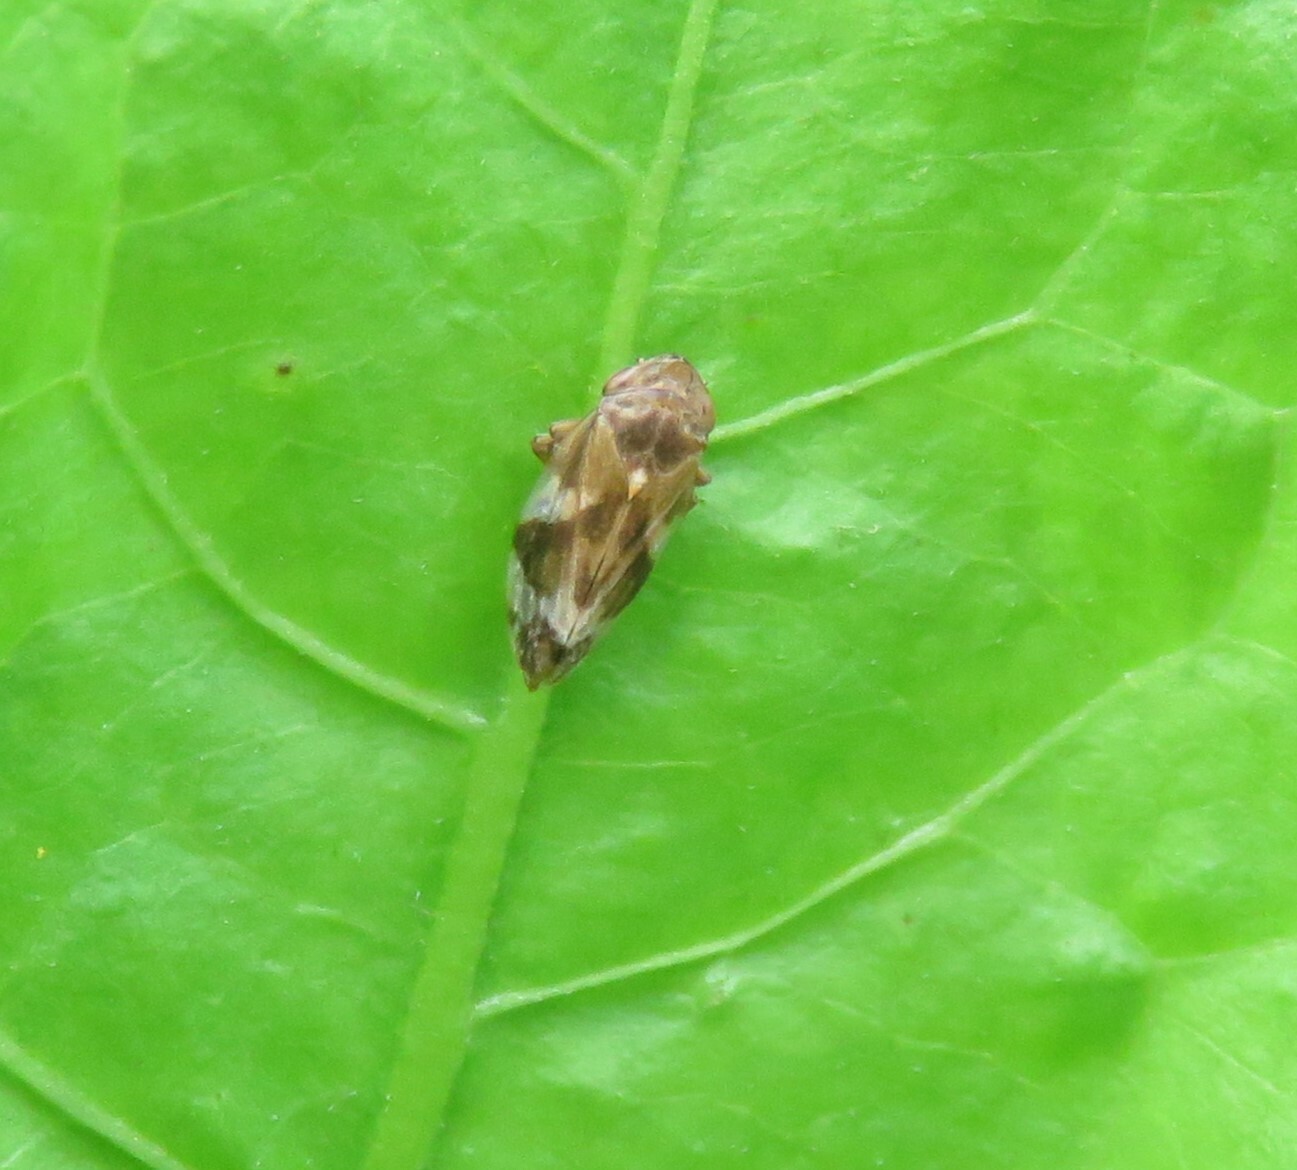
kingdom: Animalia
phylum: Arthropoda
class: Insecta
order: Hemiptera
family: Aphrophoridae
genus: Philaenus
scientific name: Philaenus spumarius
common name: Meadow spittlebug
